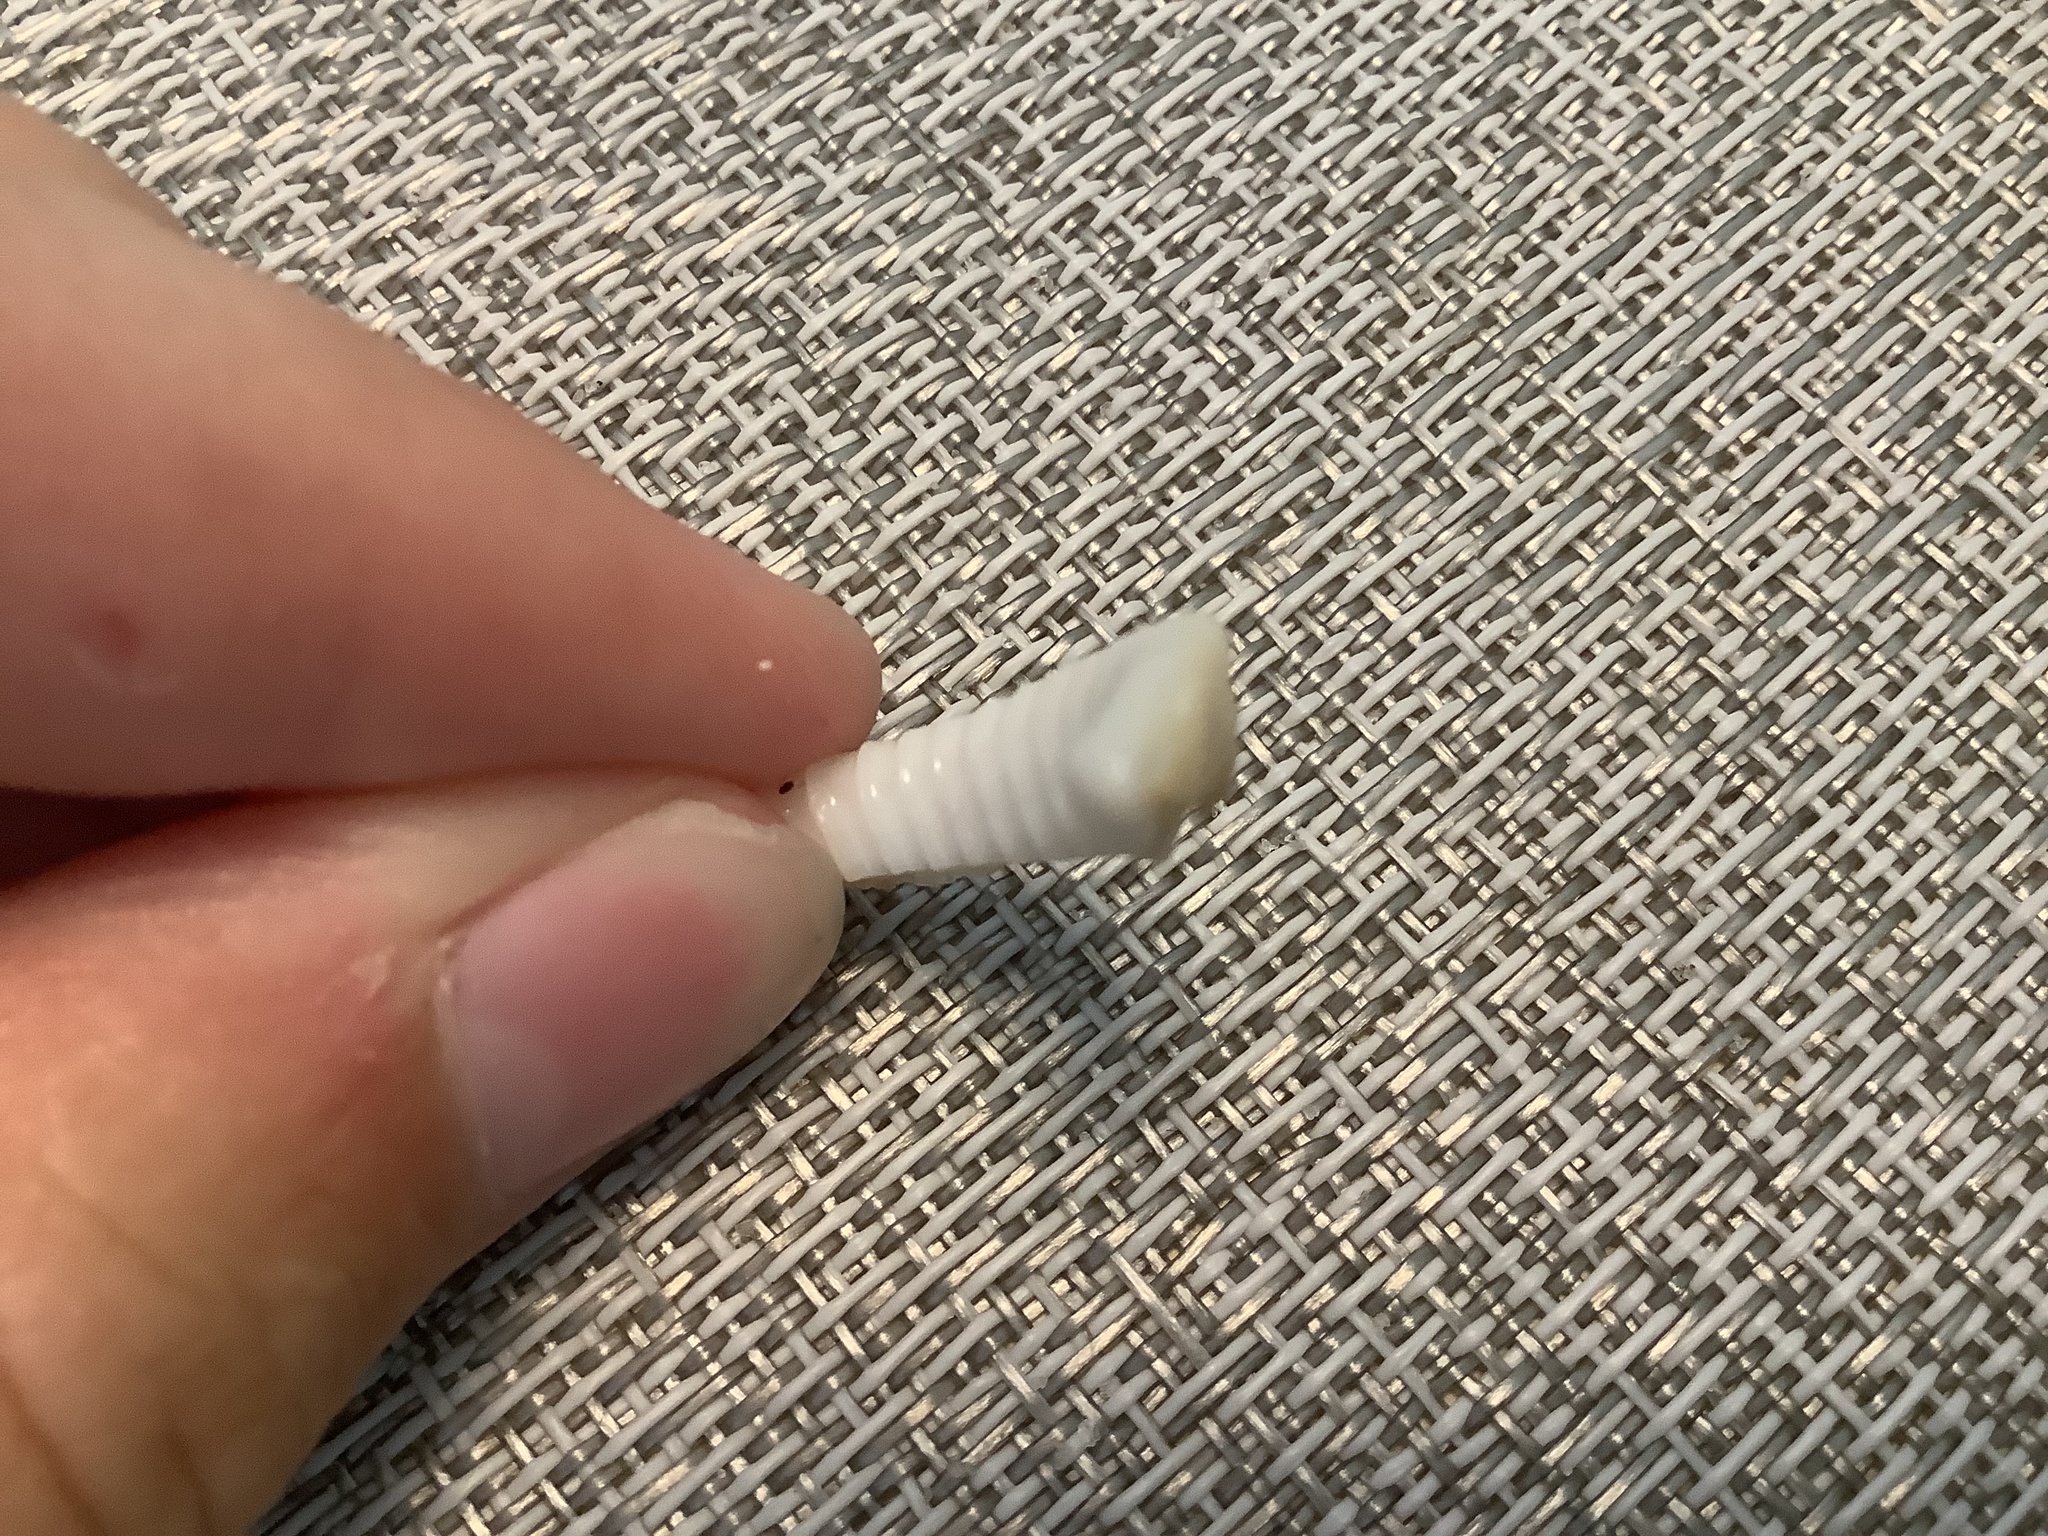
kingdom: Animalia
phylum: Mollusca
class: Gastropoda
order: Littorinimorpha
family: Cassidae
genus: Semicassis
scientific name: Semicassis granulata
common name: Scotch bonnet
